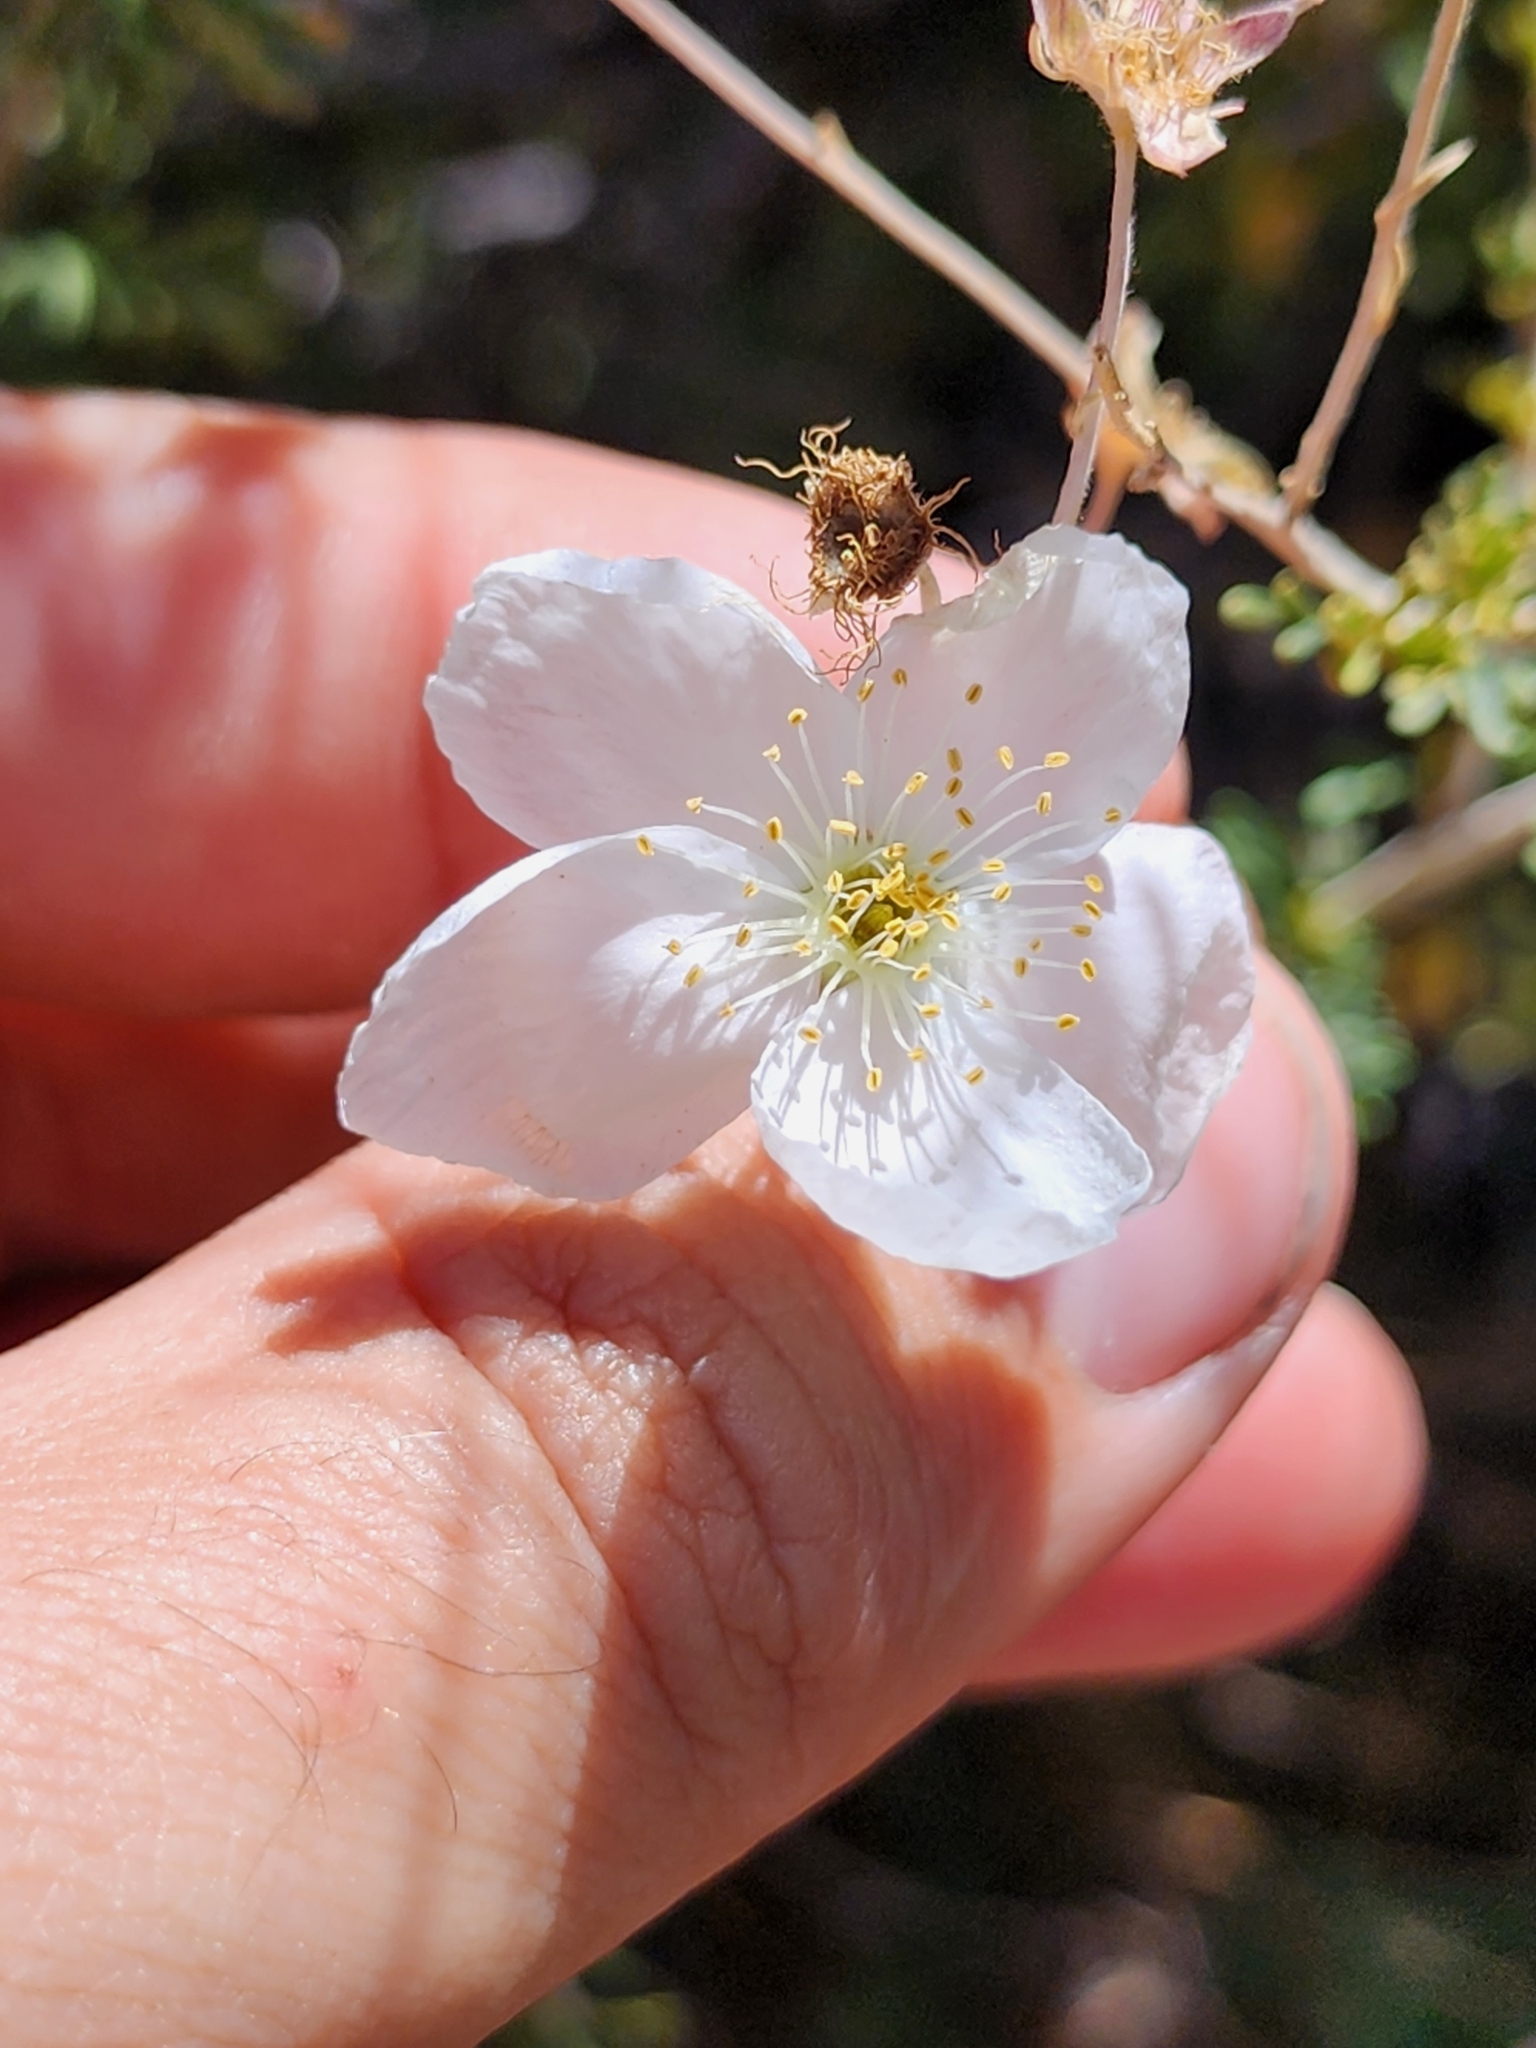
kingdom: Plantae
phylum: Tracheophyta
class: Magnoliopsida
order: Rosales
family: Rosaceae
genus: Fallugia
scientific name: Fallugia paradoxa
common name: Apache-plume
